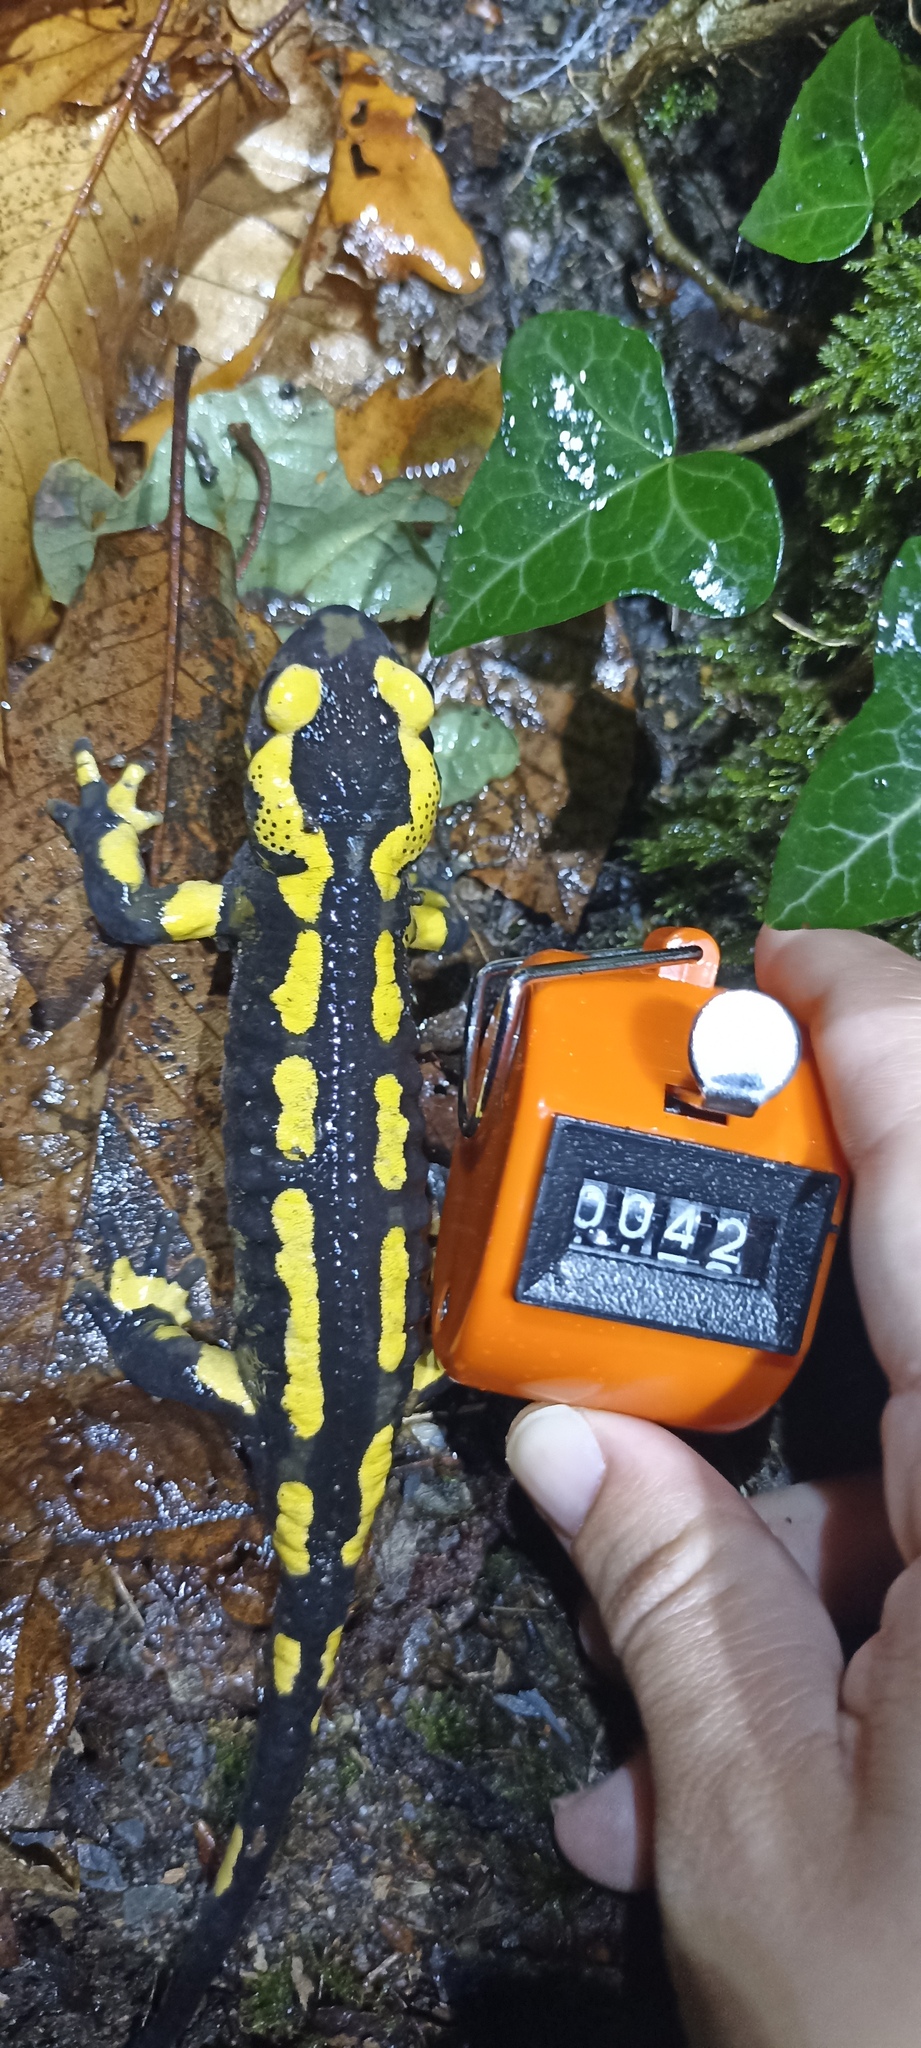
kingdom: Animalia
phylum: Chordata
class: Amphibia
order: Caudata
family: Salamandridae
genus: Salamandra
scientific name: Salamandra salamandra
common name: Fire salamander
